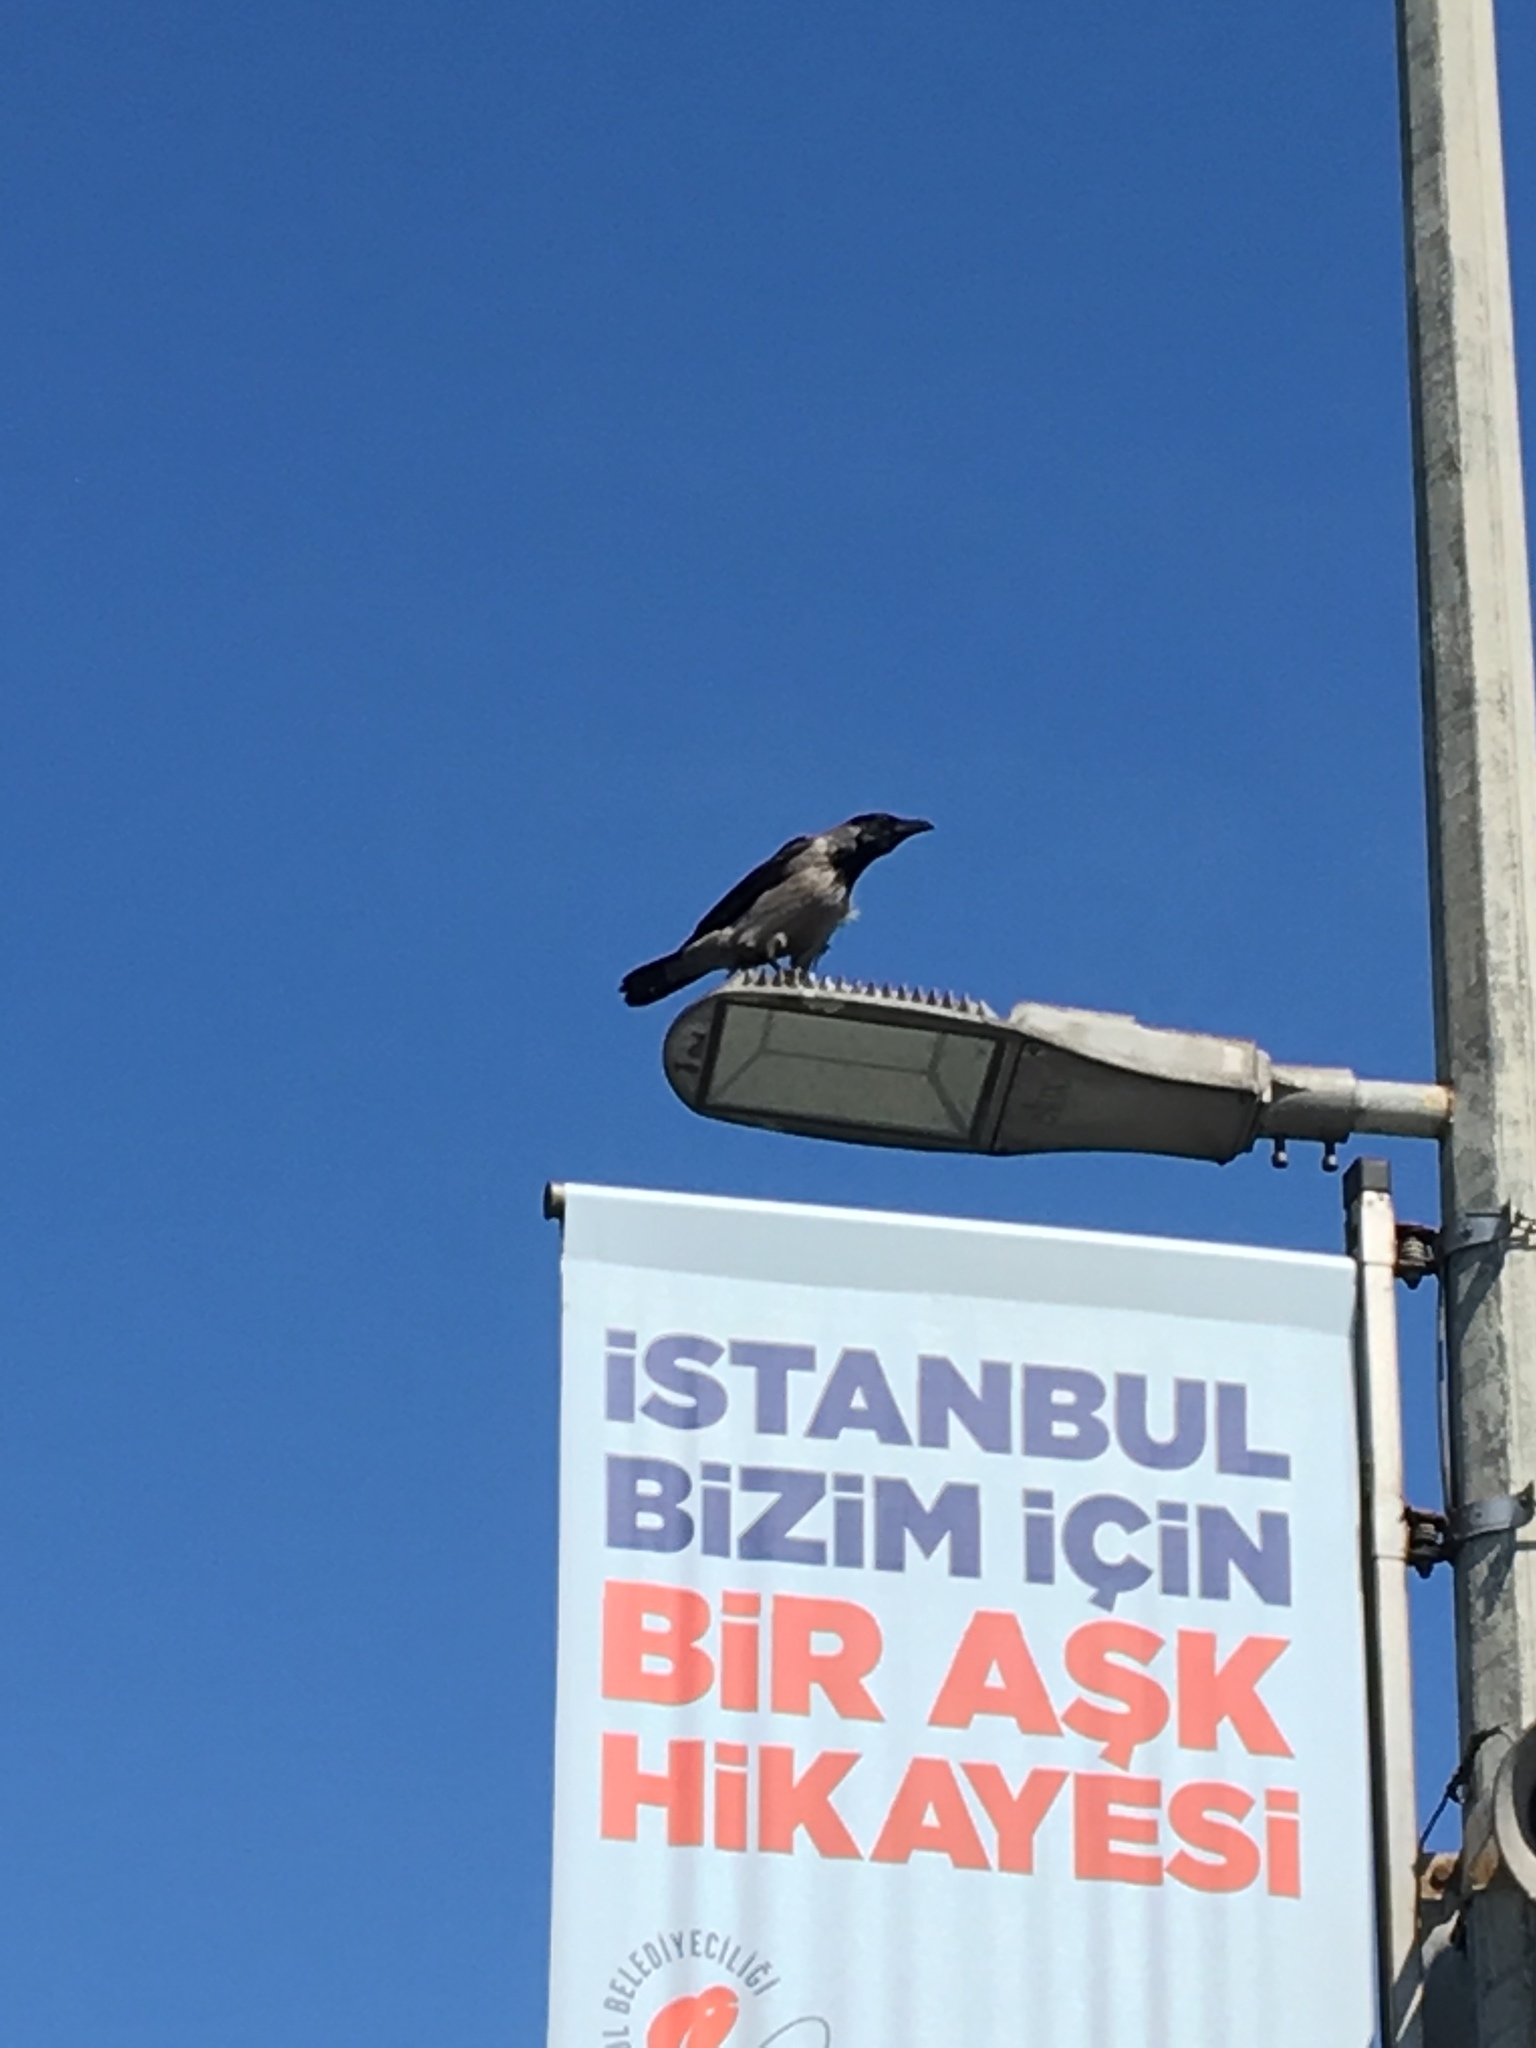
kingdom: Animalia
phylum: Chordata
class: Aves
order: Passeriformes
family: Corvidae
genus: Corvus
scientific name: Corvus cornix
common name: Hooded crow
